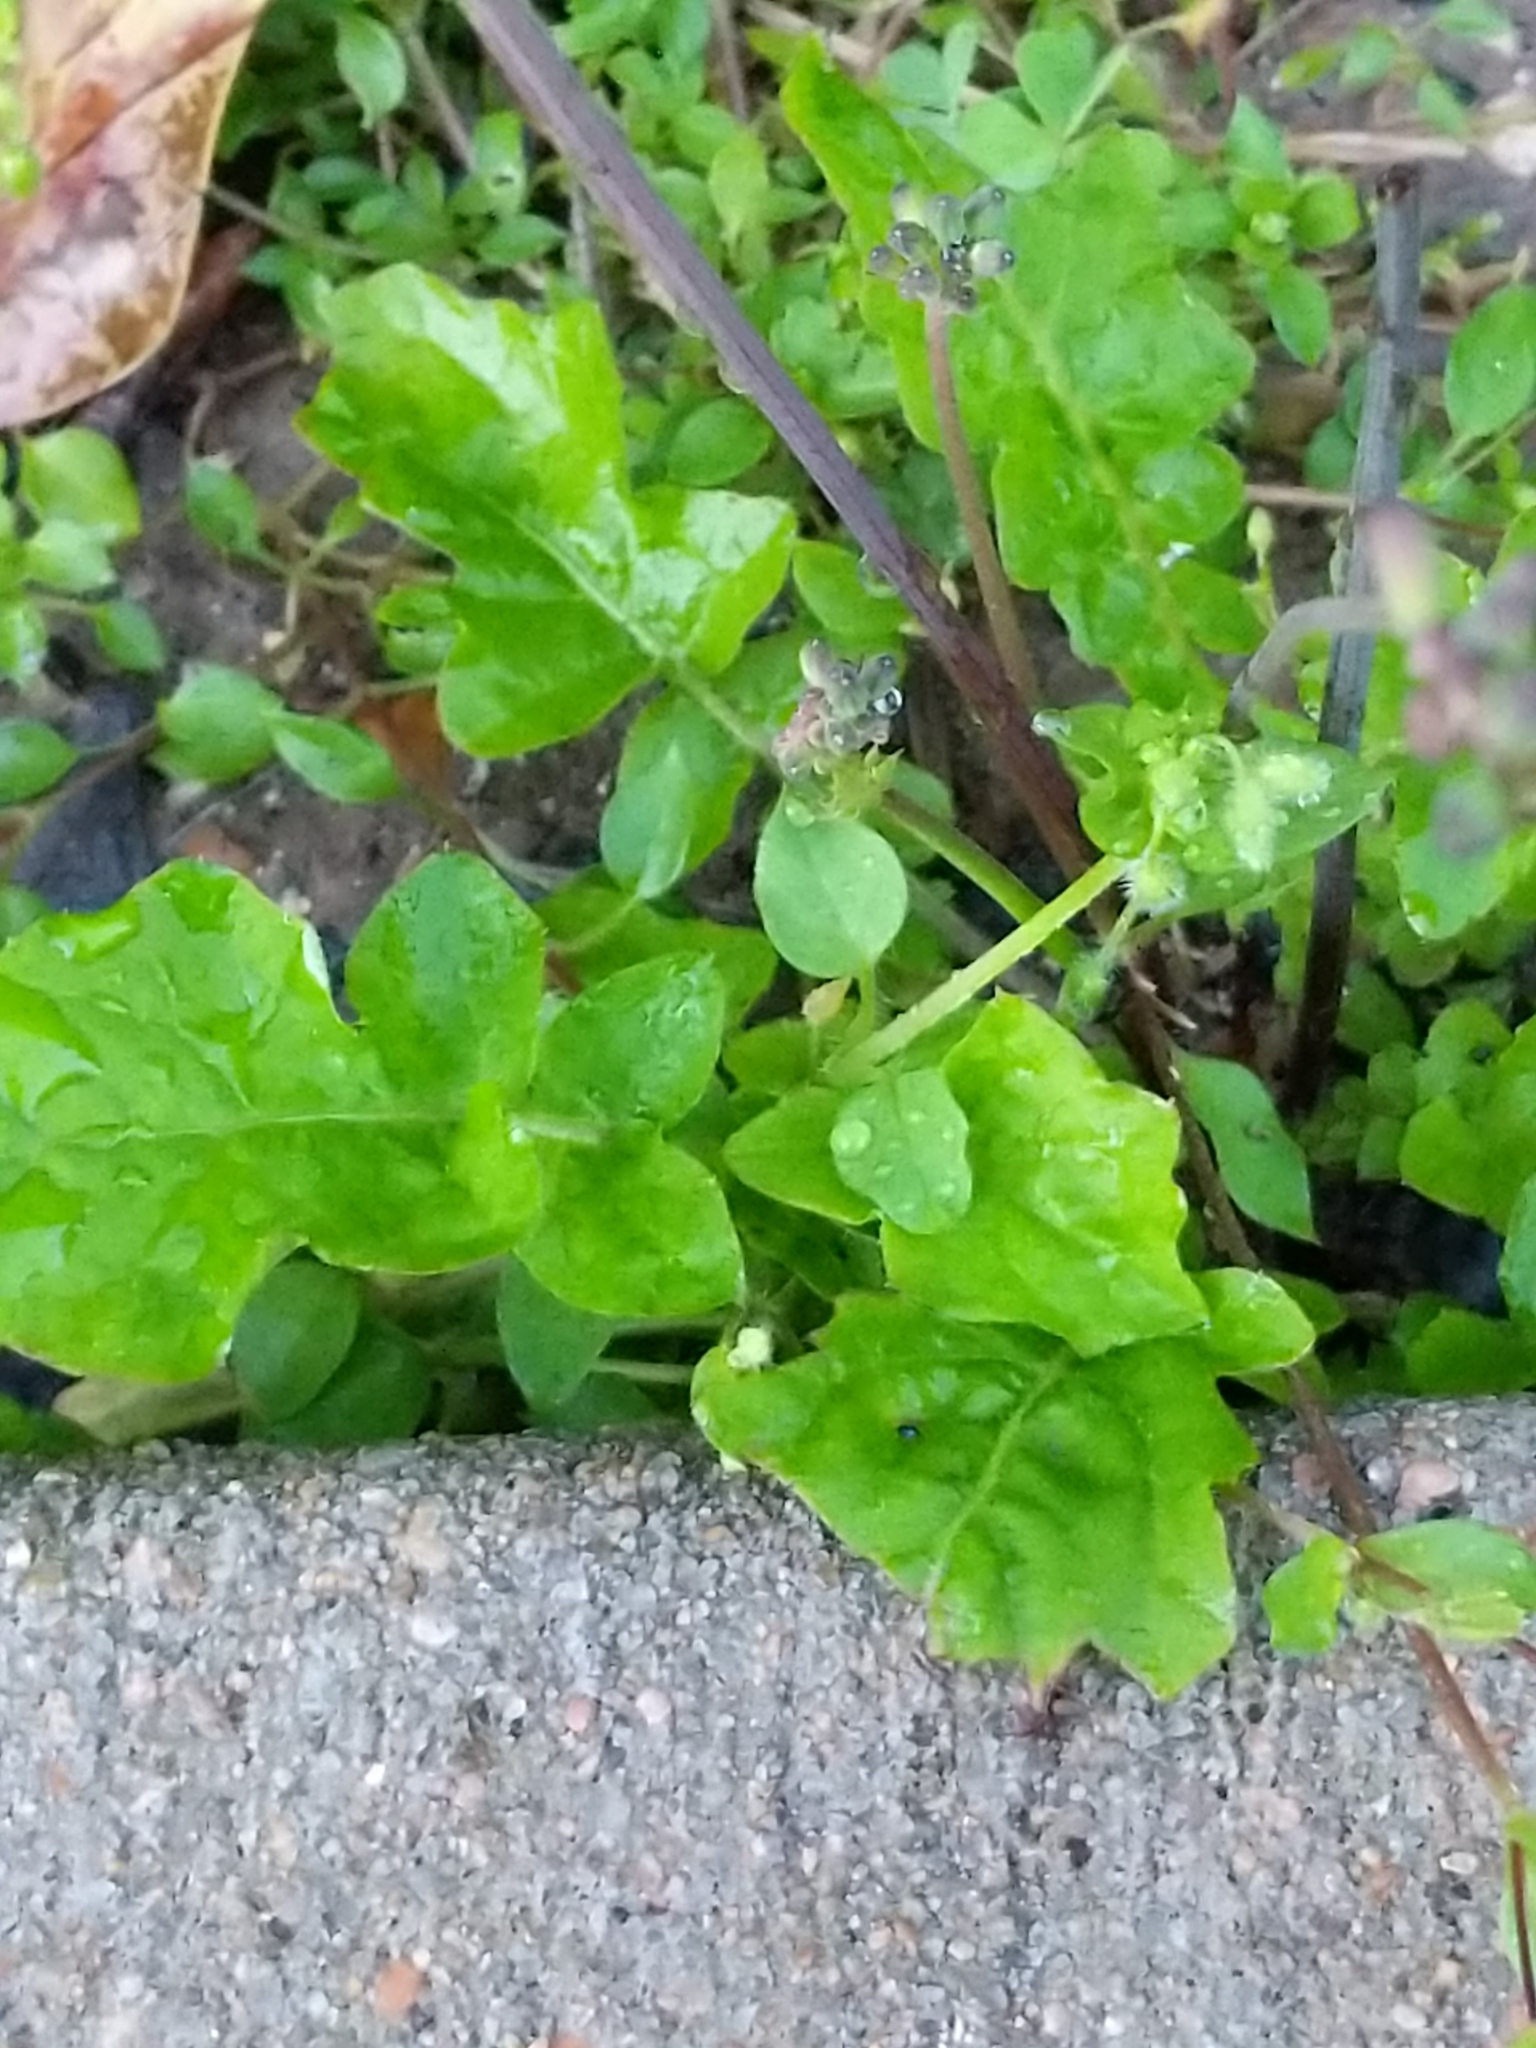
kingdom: Plantae
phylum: Tracheophyta
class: Magnoliopsida
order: Asterales
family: Asteraceae
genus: Youngia
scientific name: Youngia japonica
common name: Oriental false hawksbeard
